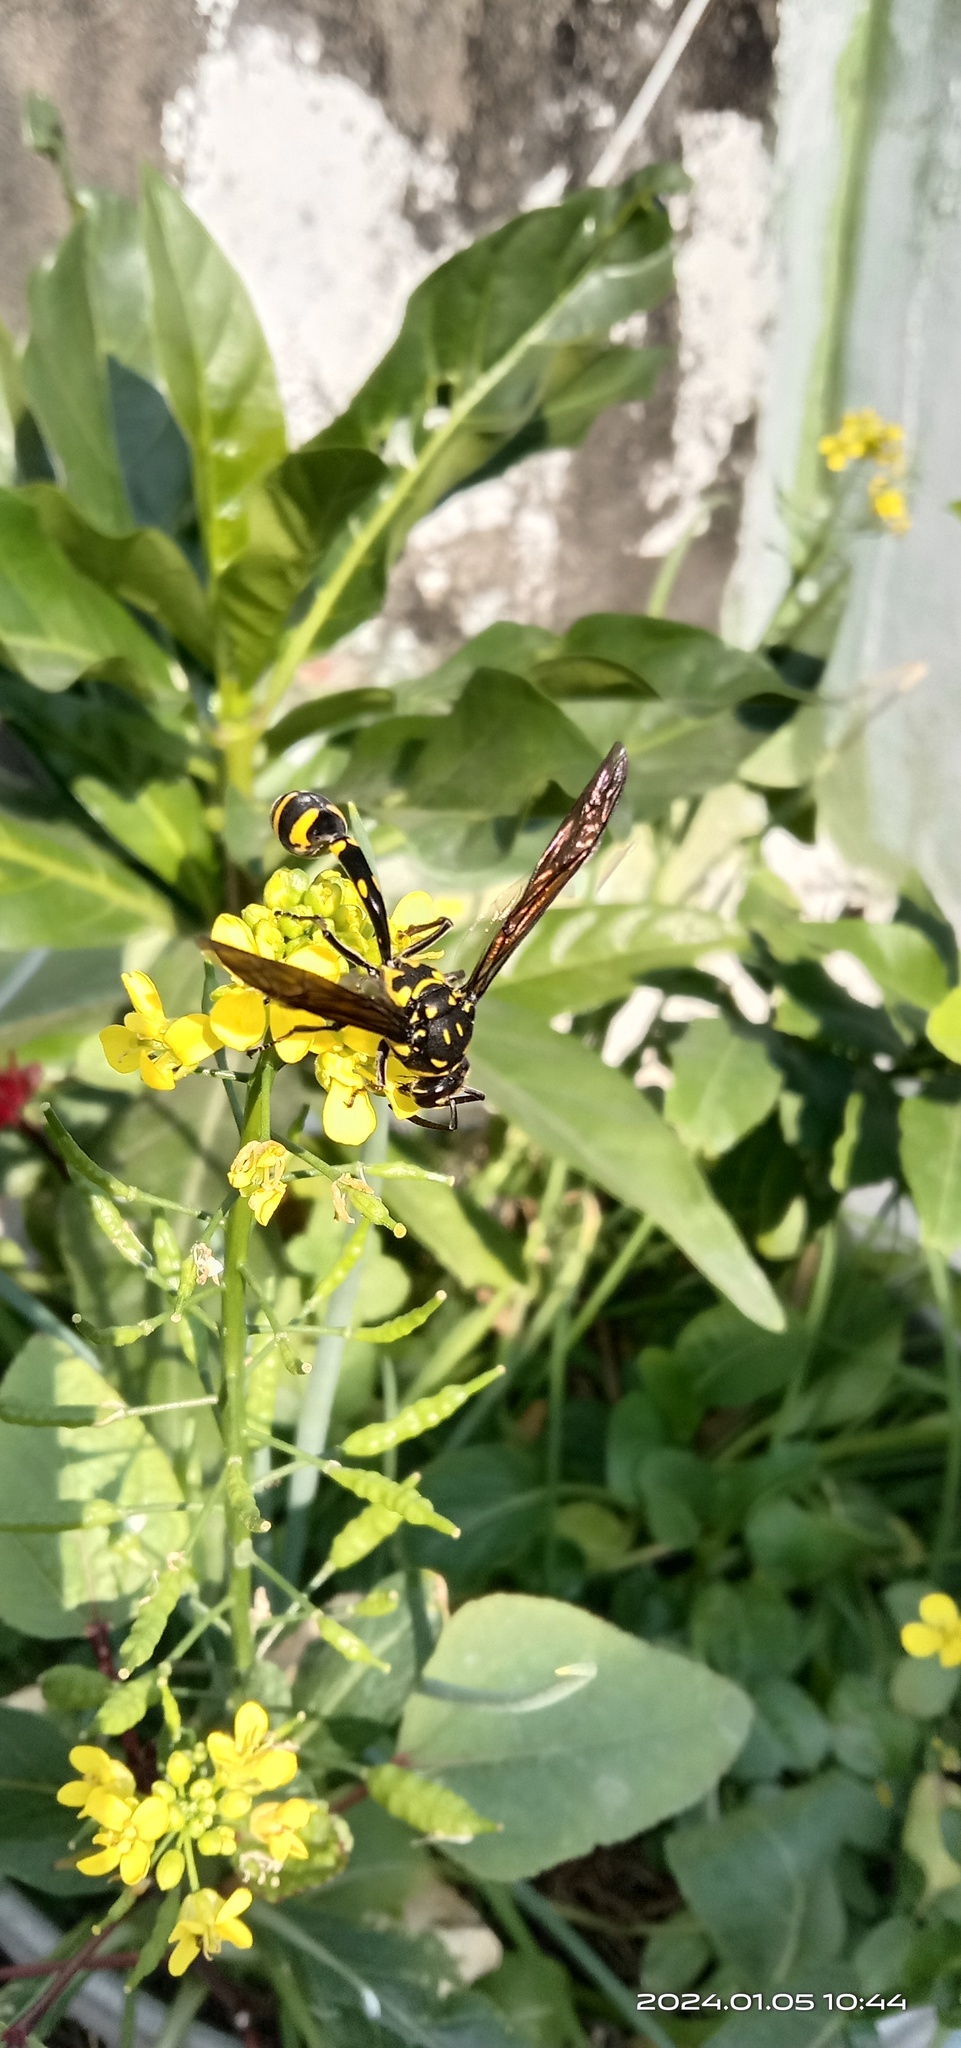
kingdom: Animalia
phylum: Arthropoda
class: Insecta
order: Hymenoptera
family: Eumenidae
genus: Phimenes
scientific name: Phimenes flavopictus
